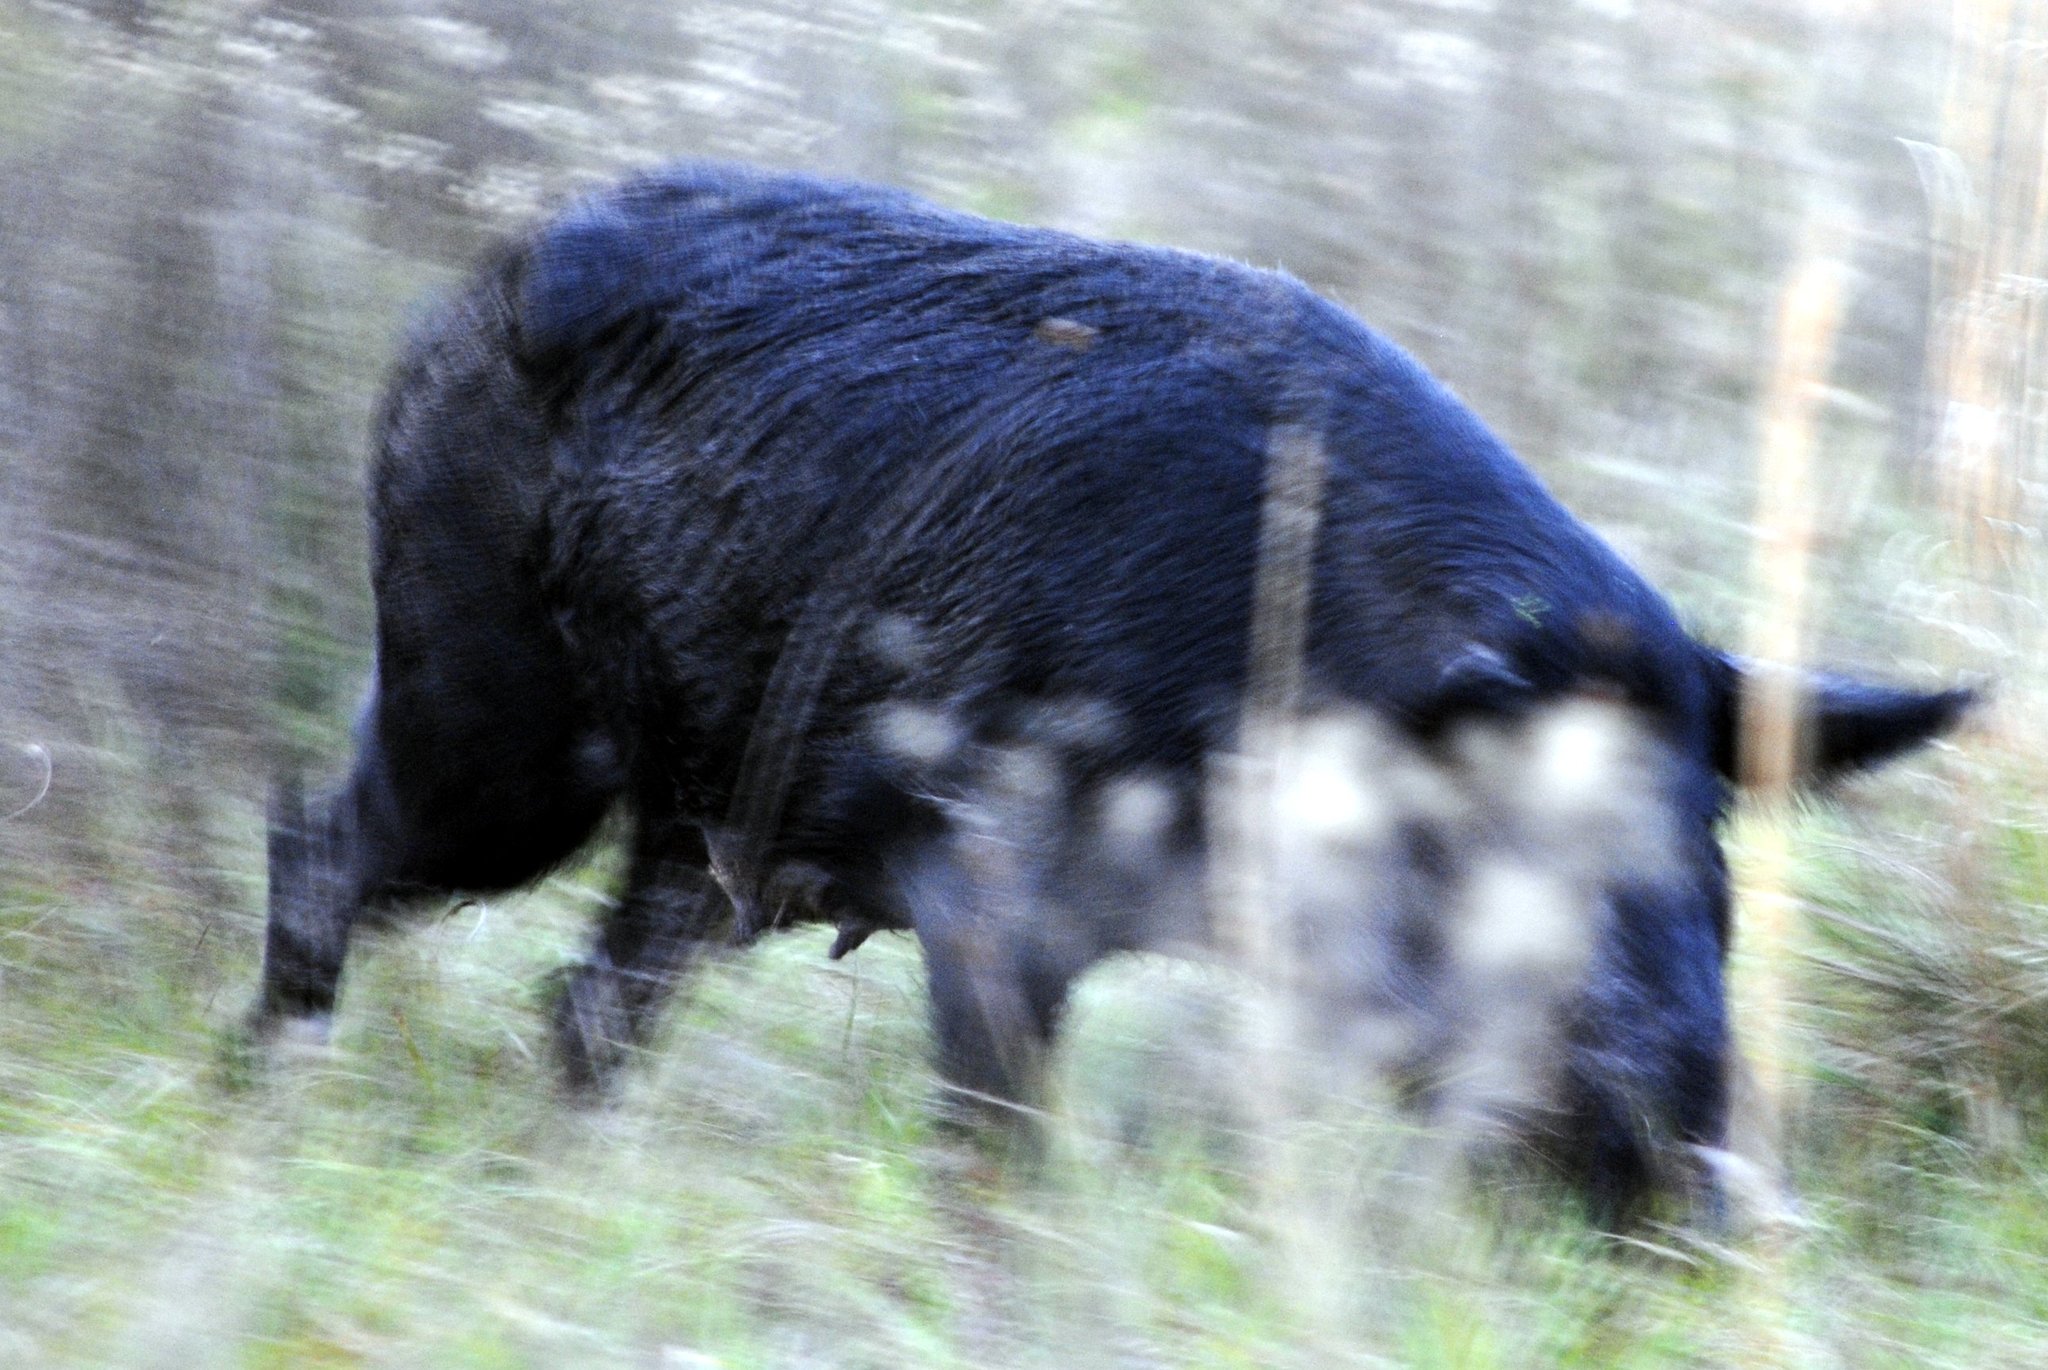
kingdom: Animalia
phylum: Chordata
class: Mammalia
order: Artiodactyla
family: Suidae
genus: Sus
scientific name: Sus scrofa
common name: Wild boar
